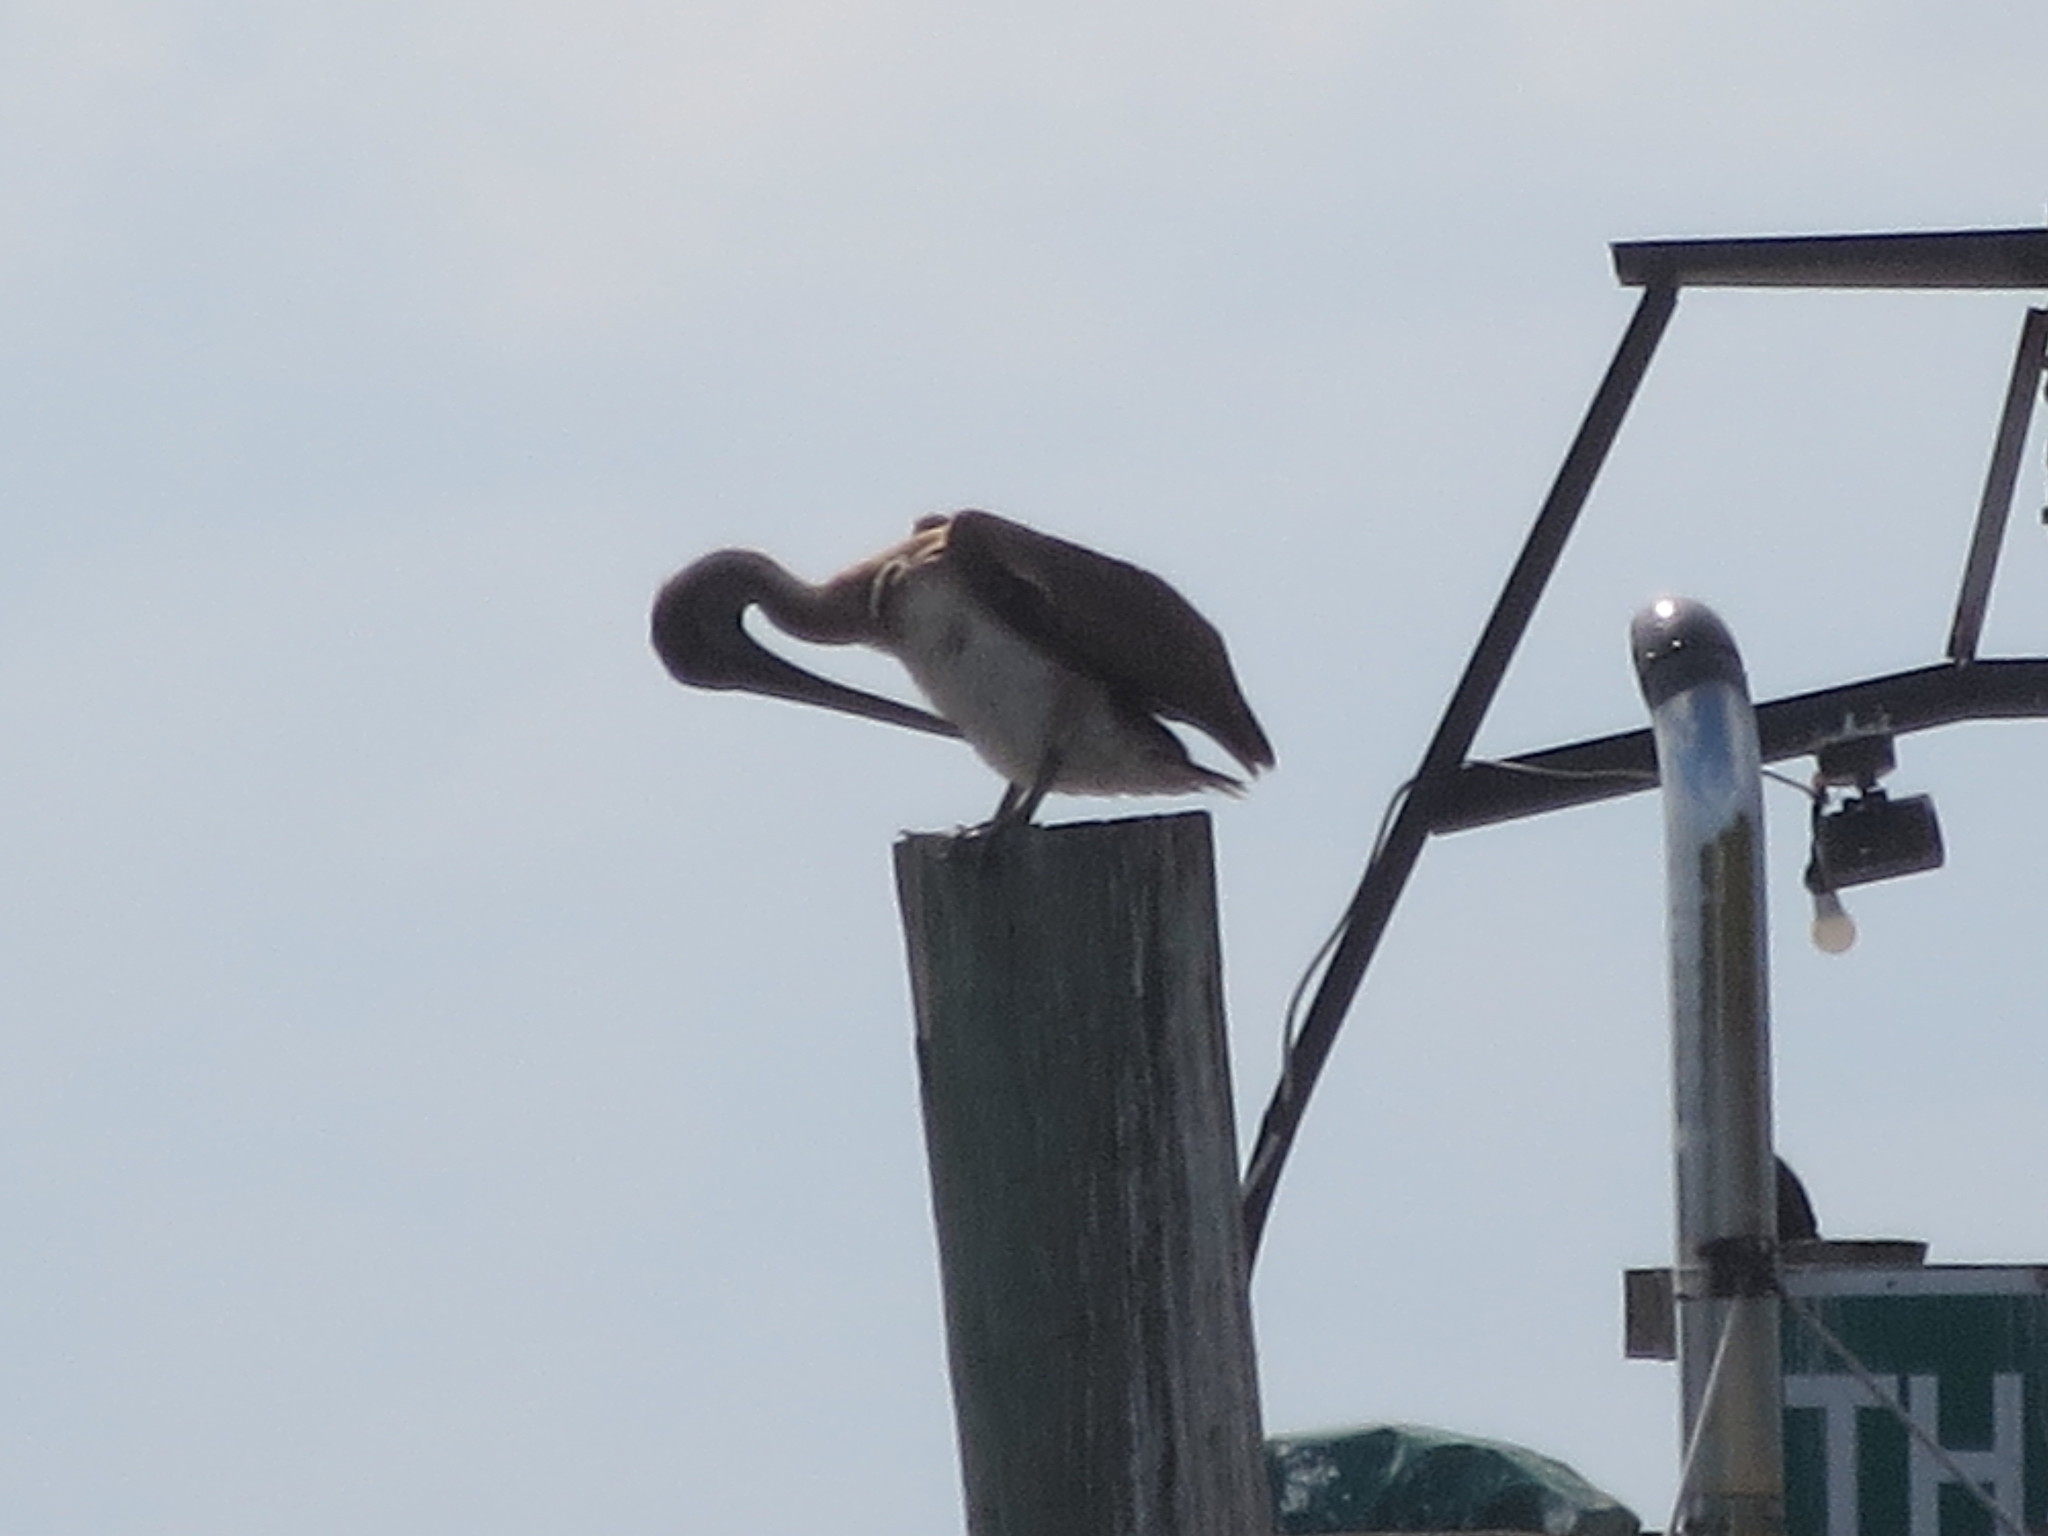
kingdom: Animalia
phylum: Chordata
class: Aves
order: Pelecaniformes
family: Pelecanidae
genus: Pelecanus
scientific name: Pelecanus occidentalis
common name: Brown pelican
